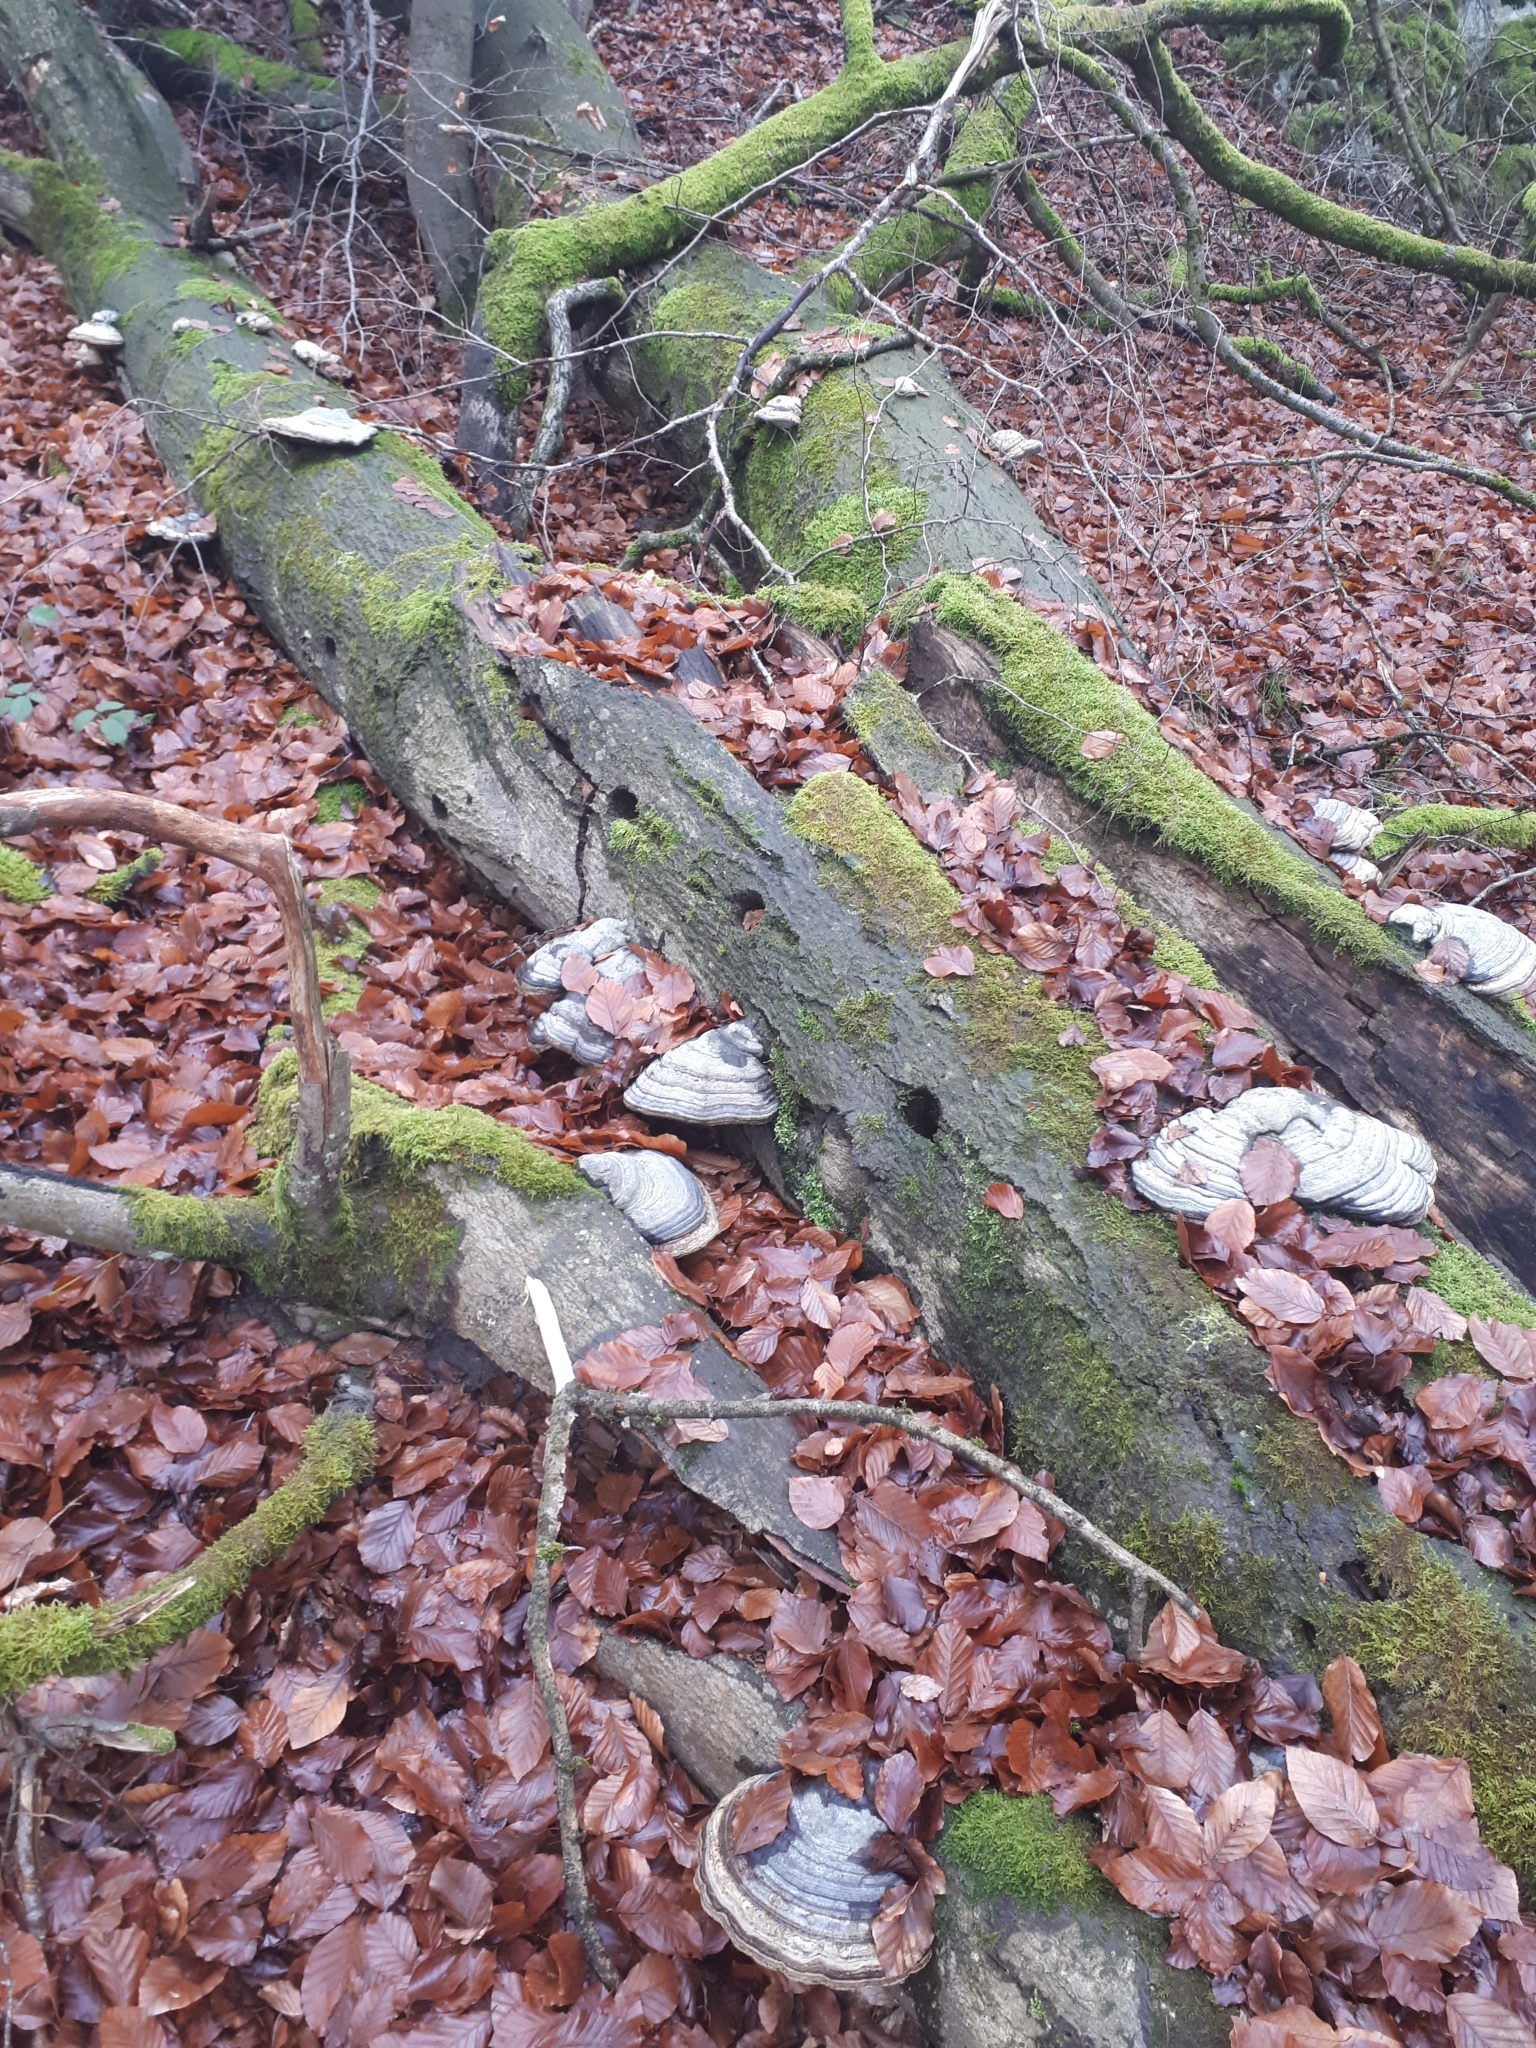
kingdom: Fungi
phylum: Basidiomycota
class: Agaricomycetes
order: Polyporales
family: Polyporaceae
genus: Fomes
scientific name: Fomes fomentarius
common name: Hoof fungus
